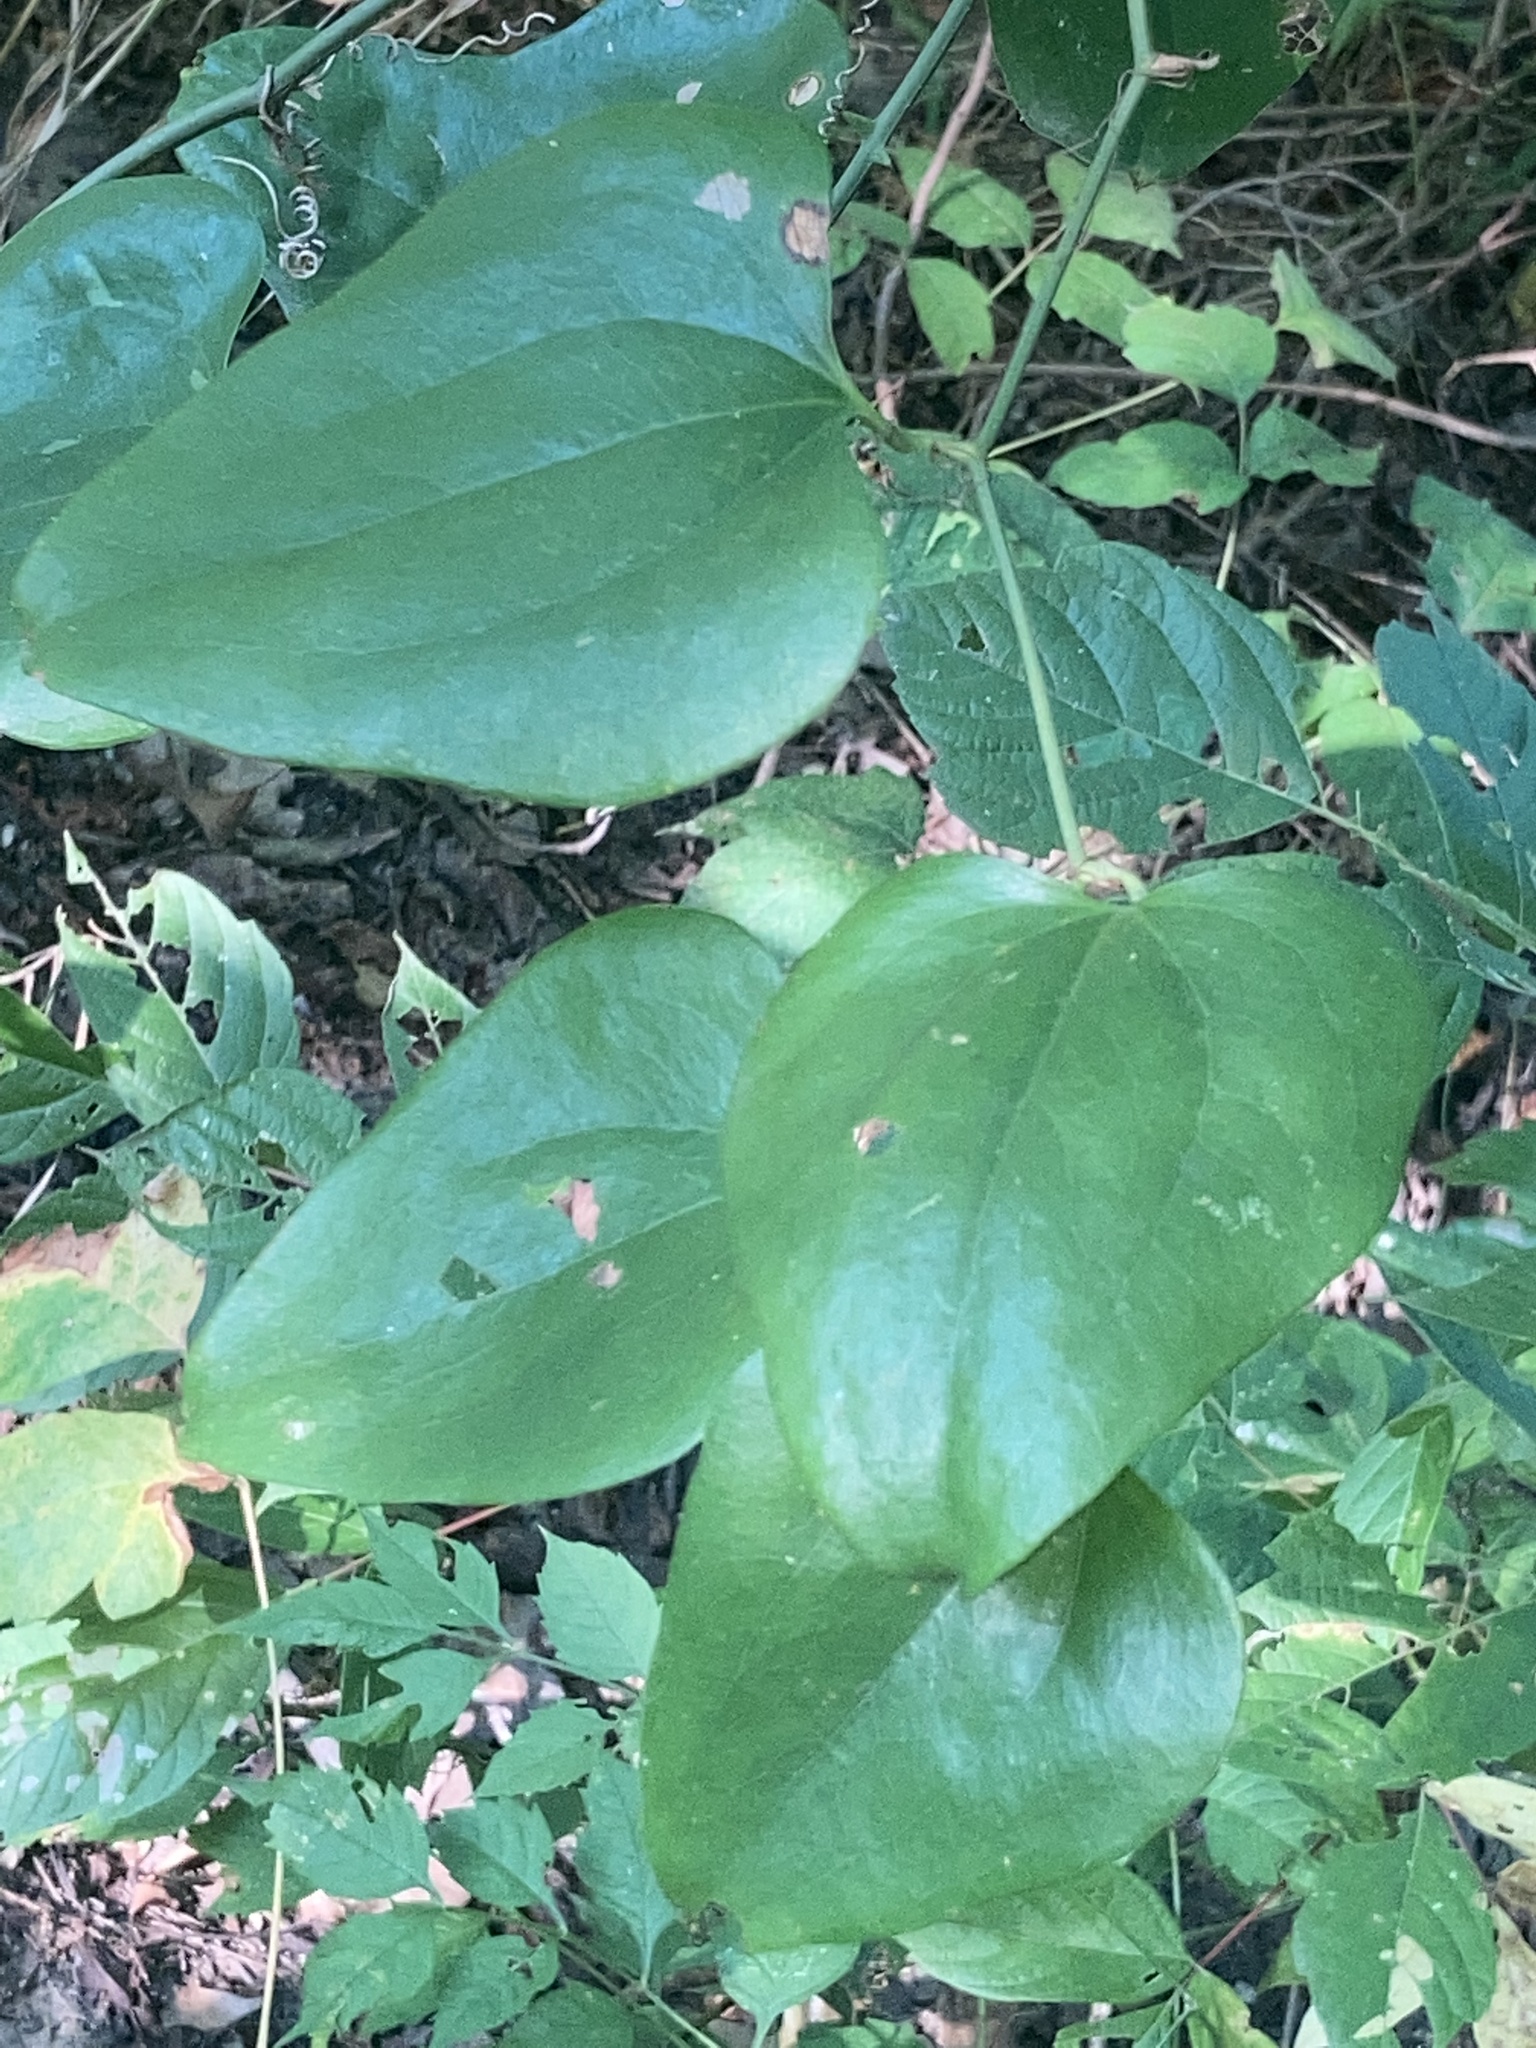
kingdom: Plantae
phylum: Tracheophyta
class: Liliopsida
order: Liliales
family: Smilacaceae
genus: Smilax
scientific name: Smilax rotundifolia
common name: Bullbriar
